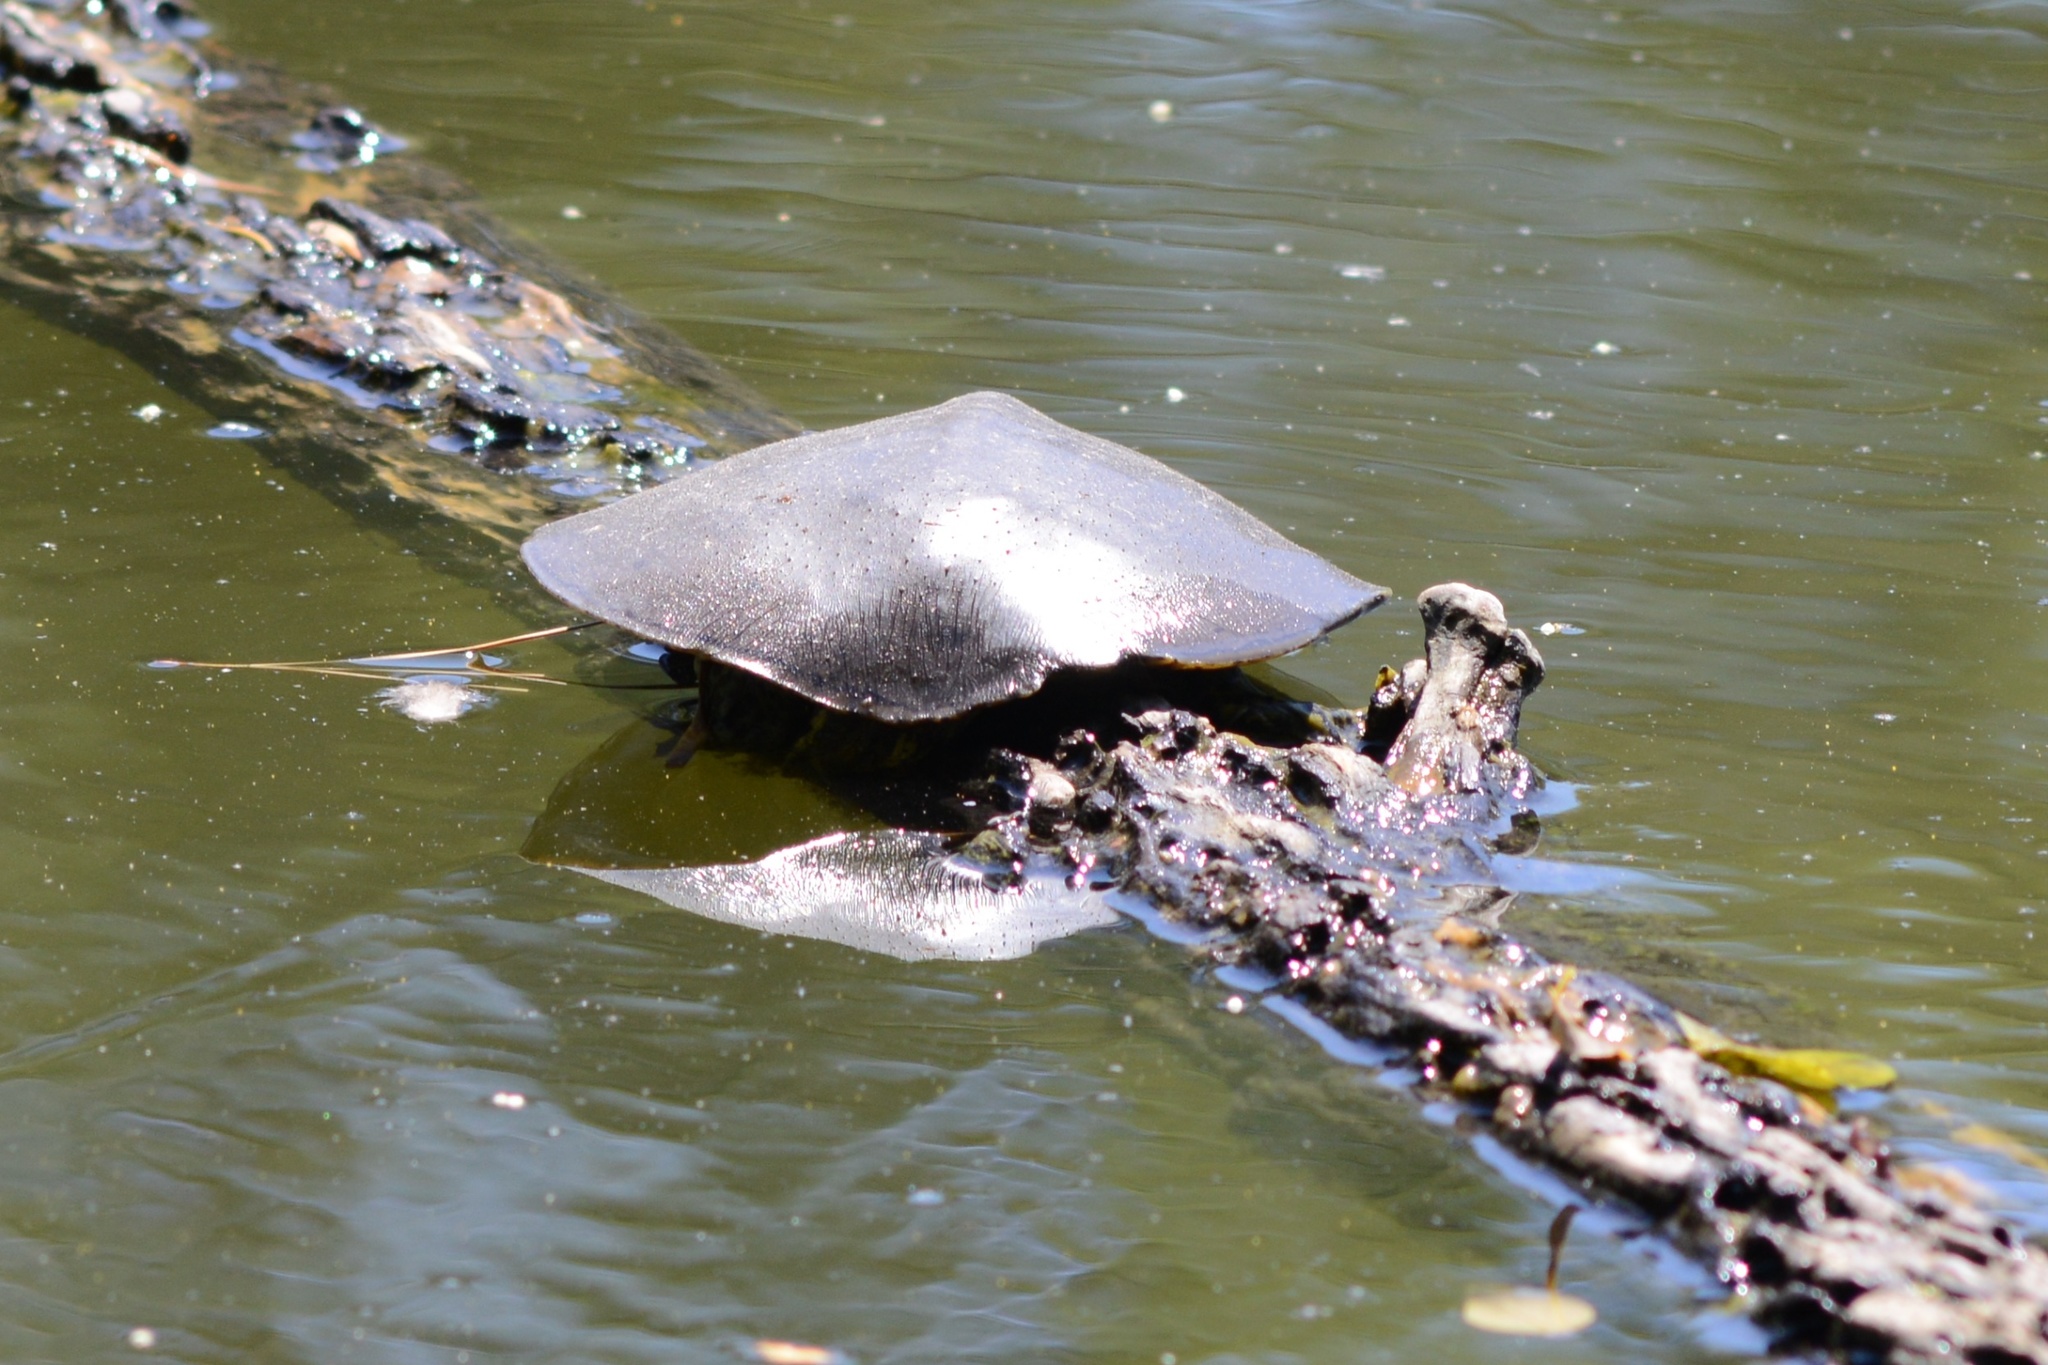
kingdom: Animalia
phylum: Chordata
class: Testudines
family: Trionychidae
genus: Apalone
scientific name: Apalone spinifera
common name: Spiny softshell turtle
